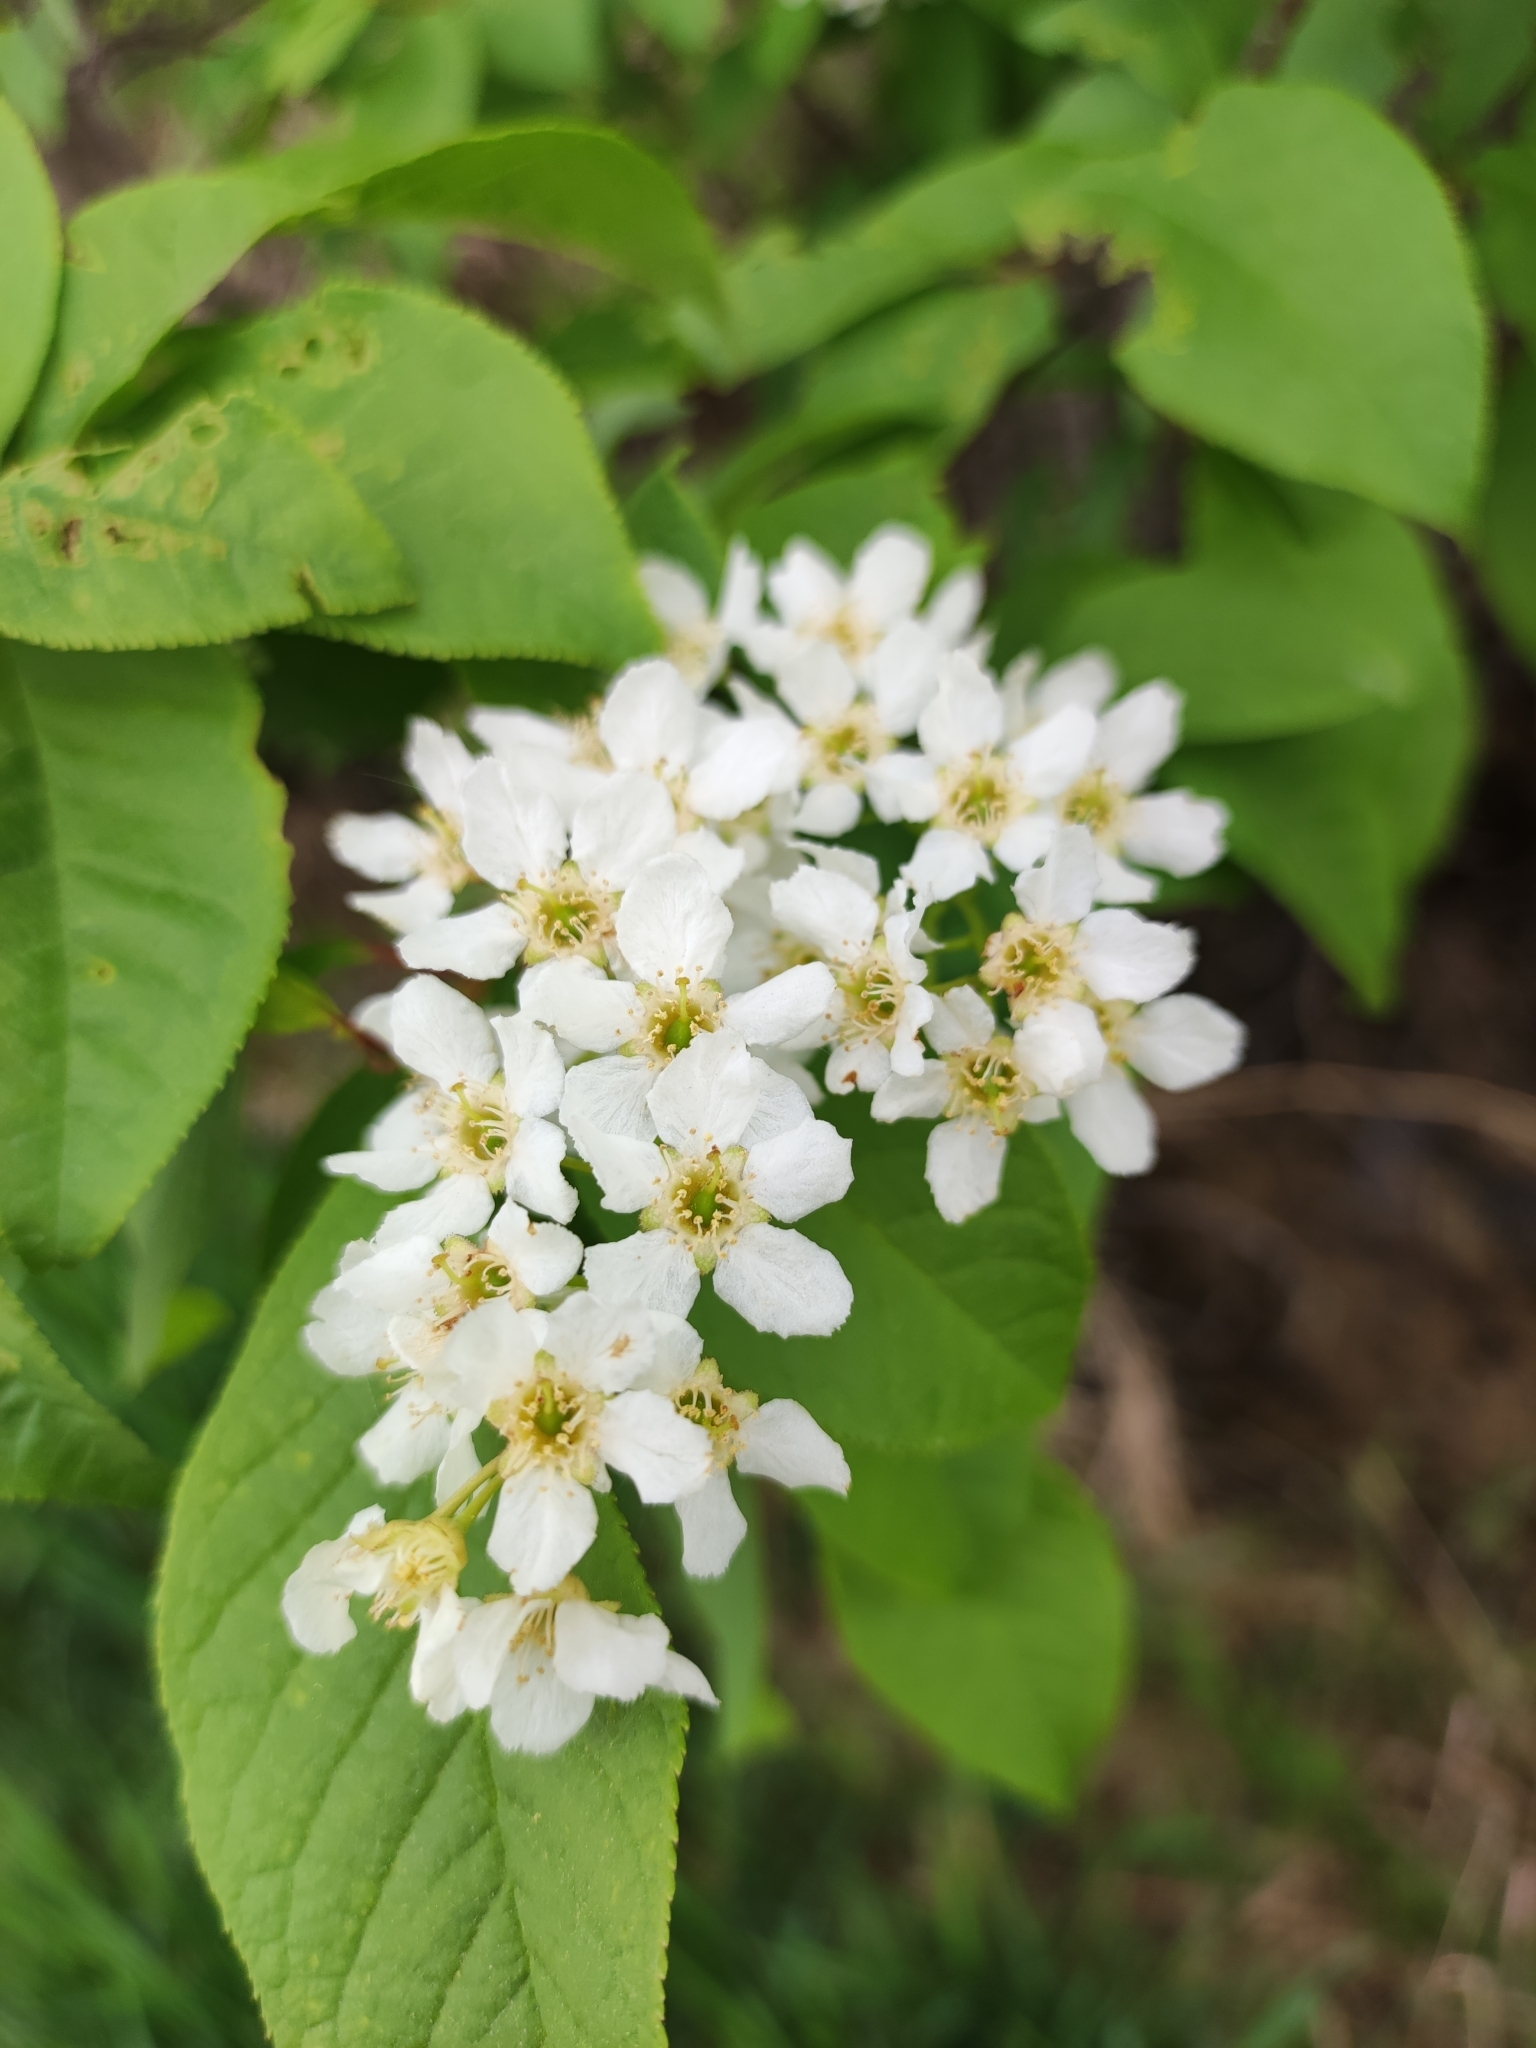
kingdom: Plantae
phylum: Tracheophyta
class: Magnoliopsida
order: Rosales
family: Rosaceae
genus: Prunus
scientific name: Prunus padus
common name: Bird cherry
